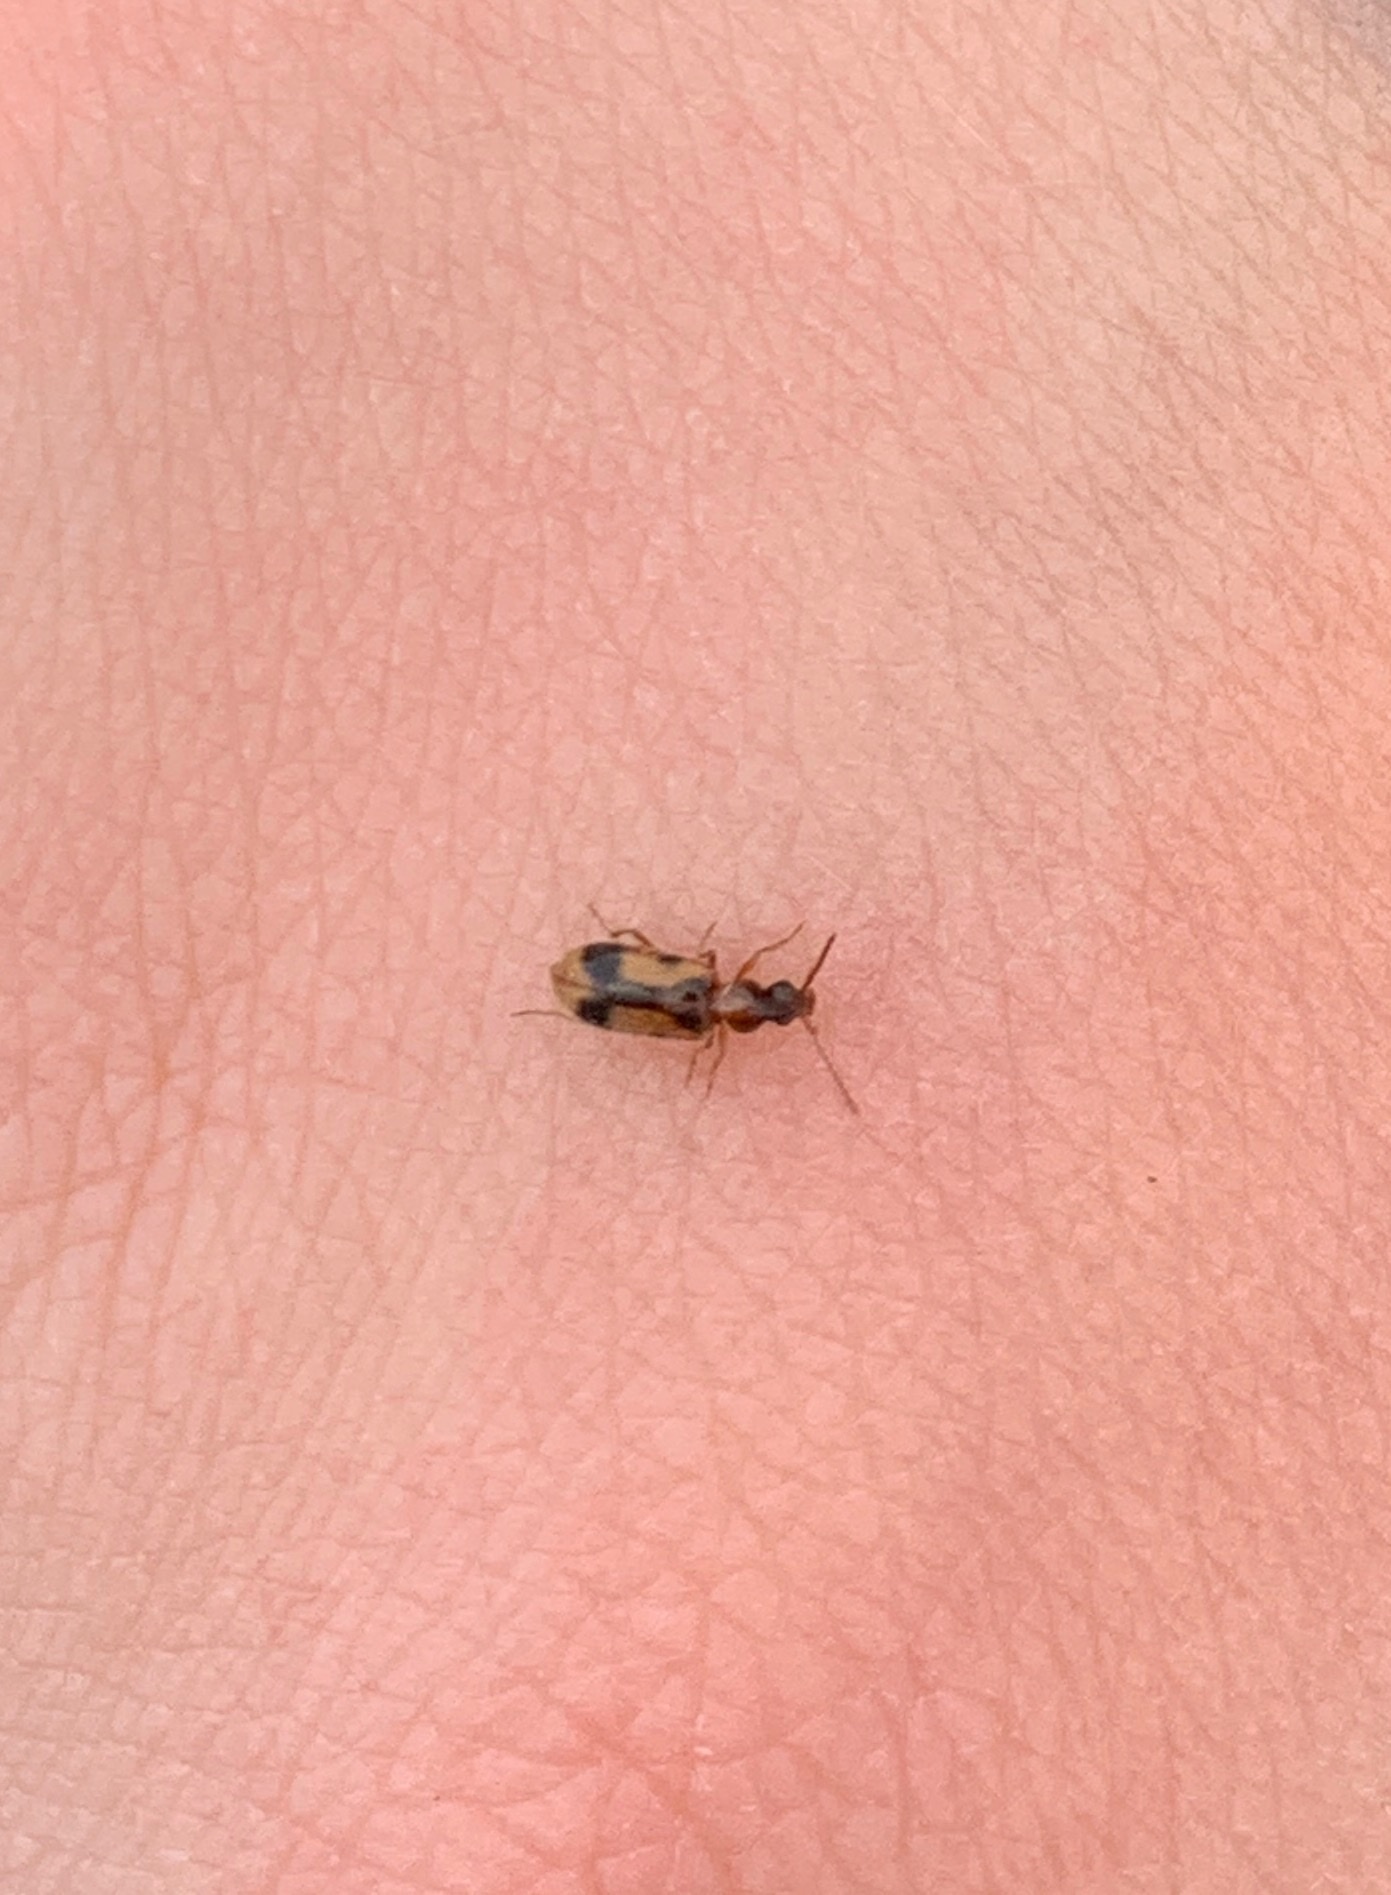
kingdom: Animalia
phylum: Arthropoda
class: Insecta
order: Coleoptera
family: Anthicidae
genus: Notoxus
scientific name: Notoxus monoceros
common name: Monoceros beetle
